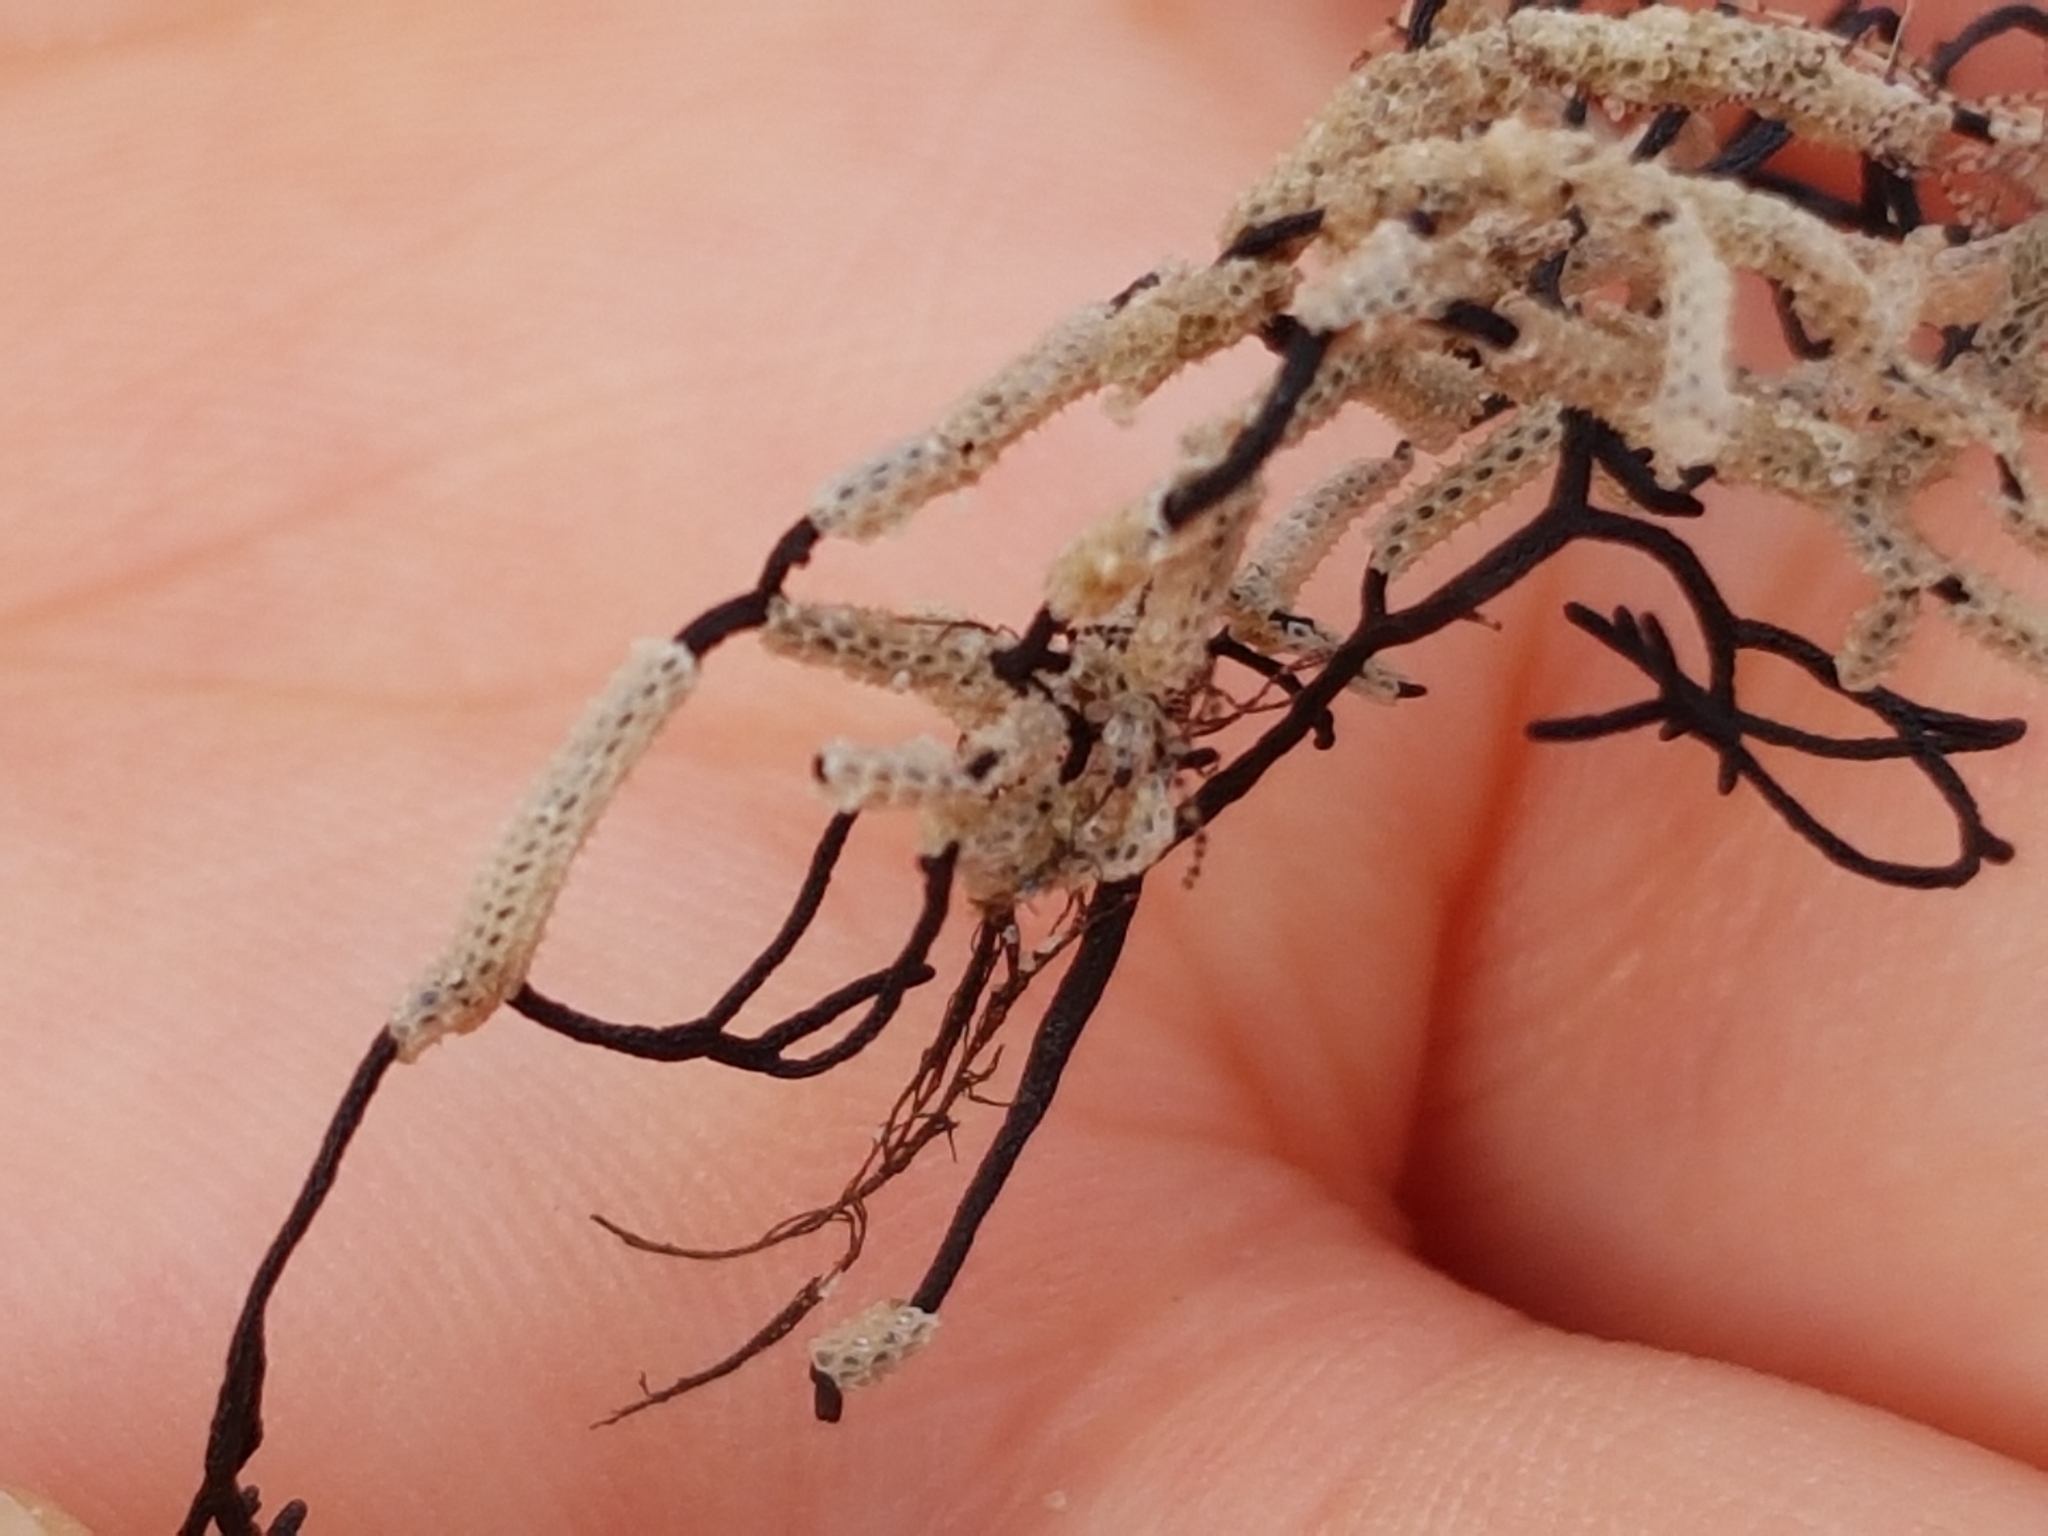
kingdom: Animalia
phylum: Bryozoa
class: Gymnolaemata
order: Cheilostomatida
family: Electridae
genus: Electra
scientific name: Electra pilosa
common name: Hairy sea-mat
